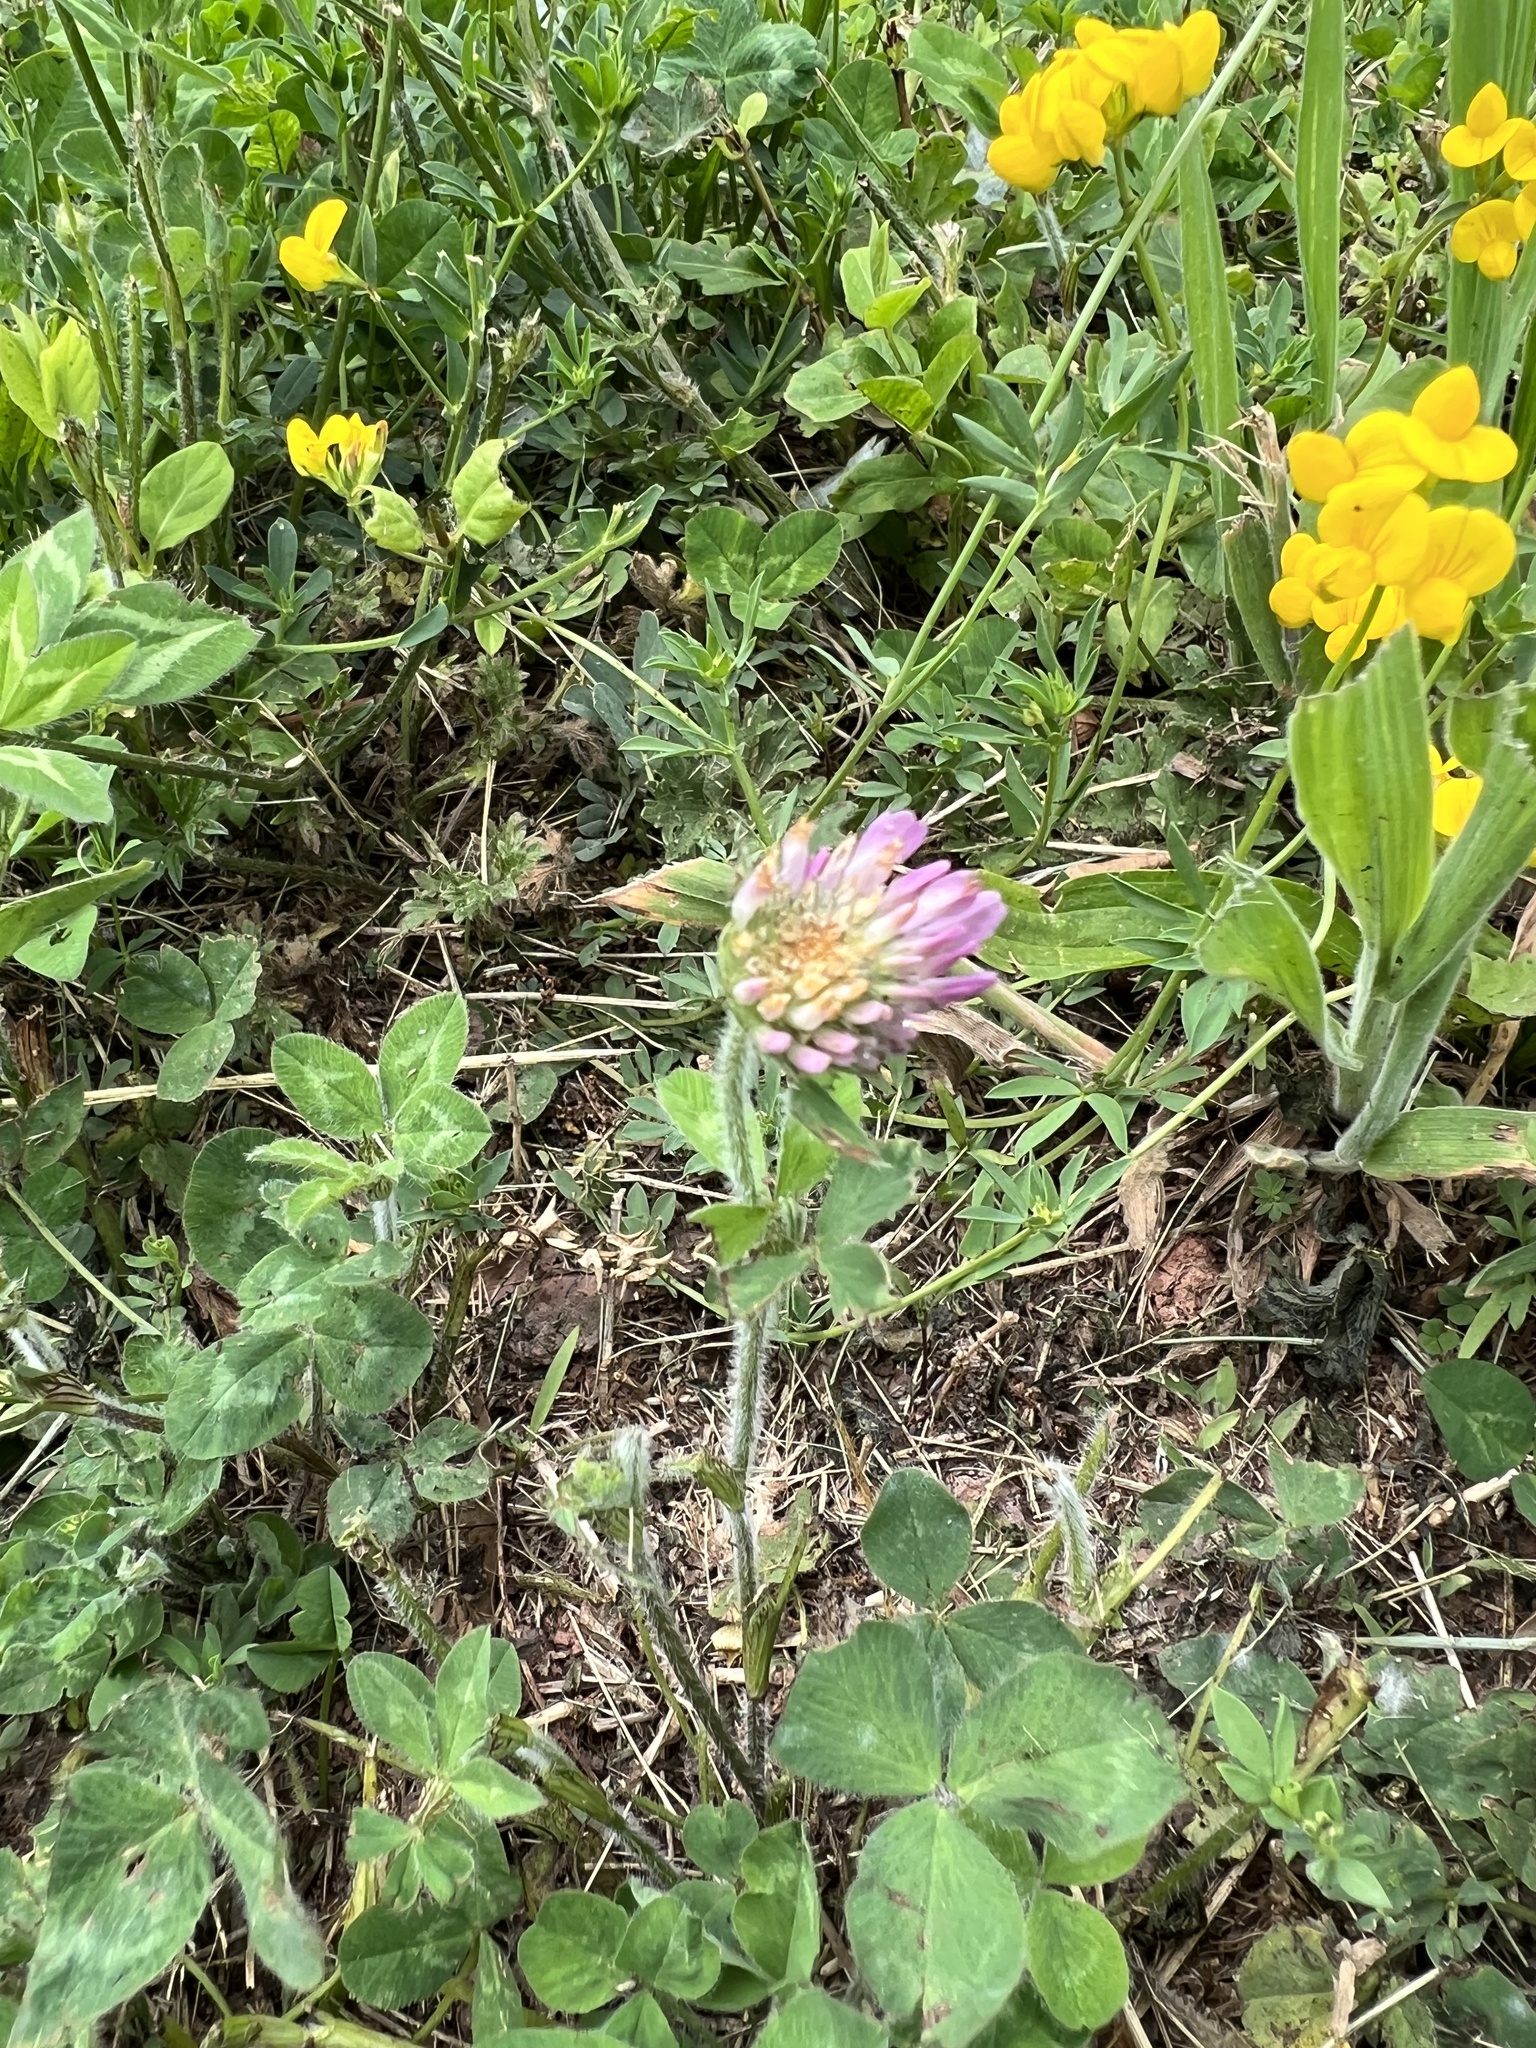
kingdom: Plantae
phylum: Tracheophyta
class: Magnoliopsida
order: Fabales
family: Fabaceae
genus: Trifolium
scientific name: Trifolium pratense
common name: Red clover
